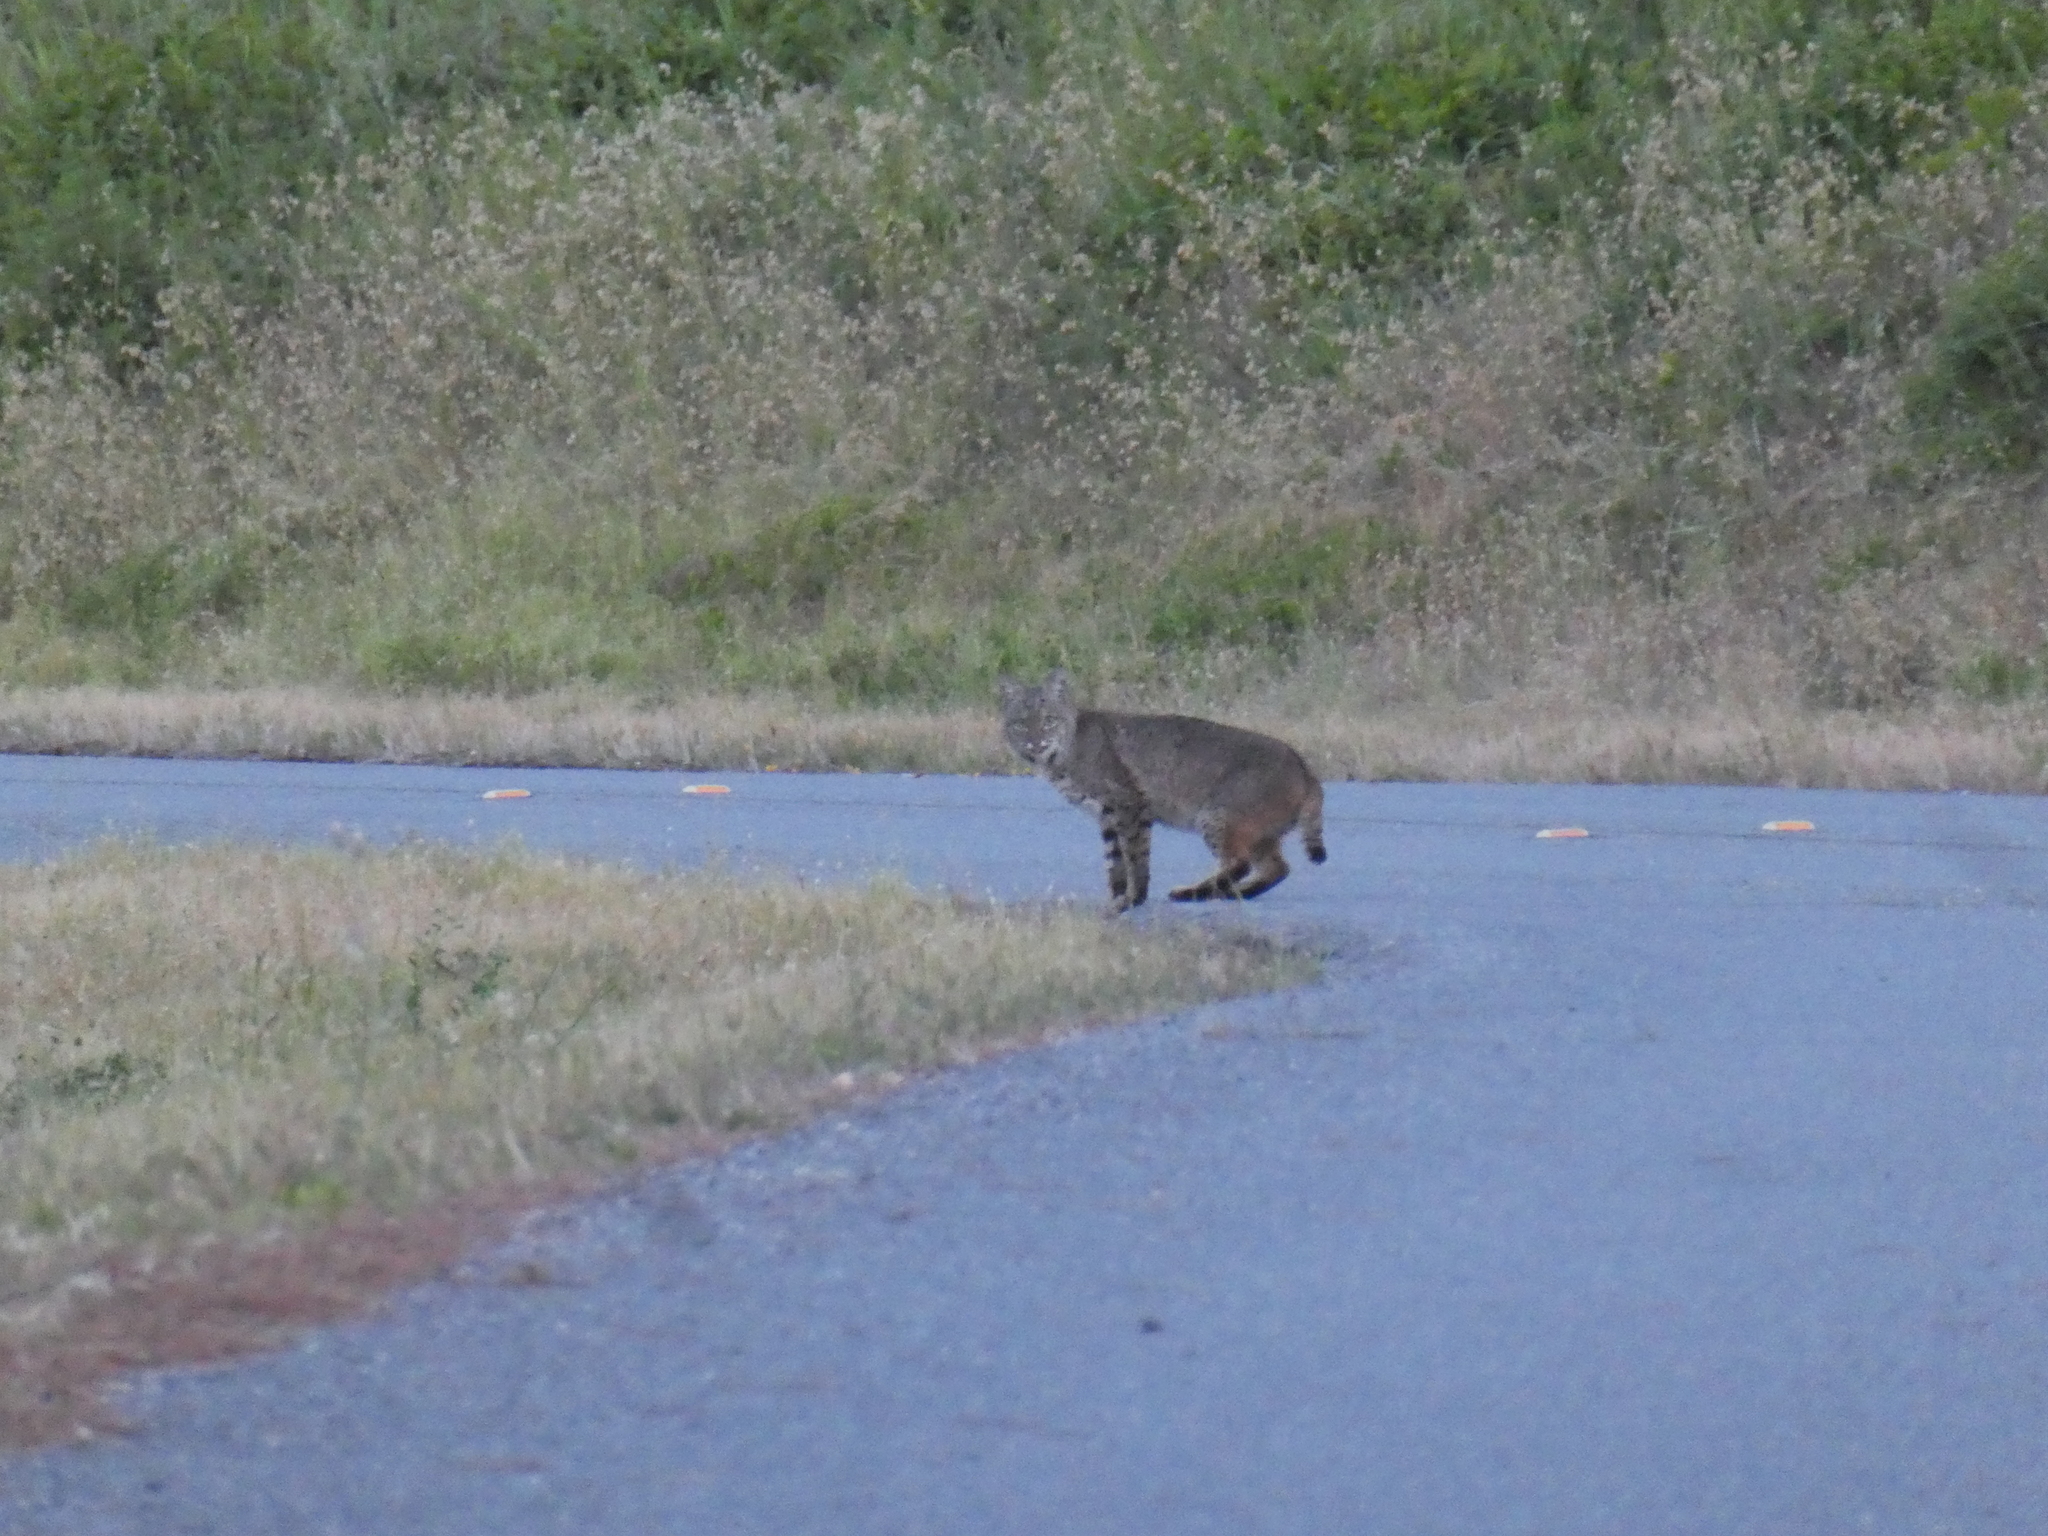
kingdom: Animalia
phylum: Chordata
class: Mammalia
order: Carnivora
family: Felidae
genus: Lynx
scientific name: Lynx rufus
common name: Bobcat
